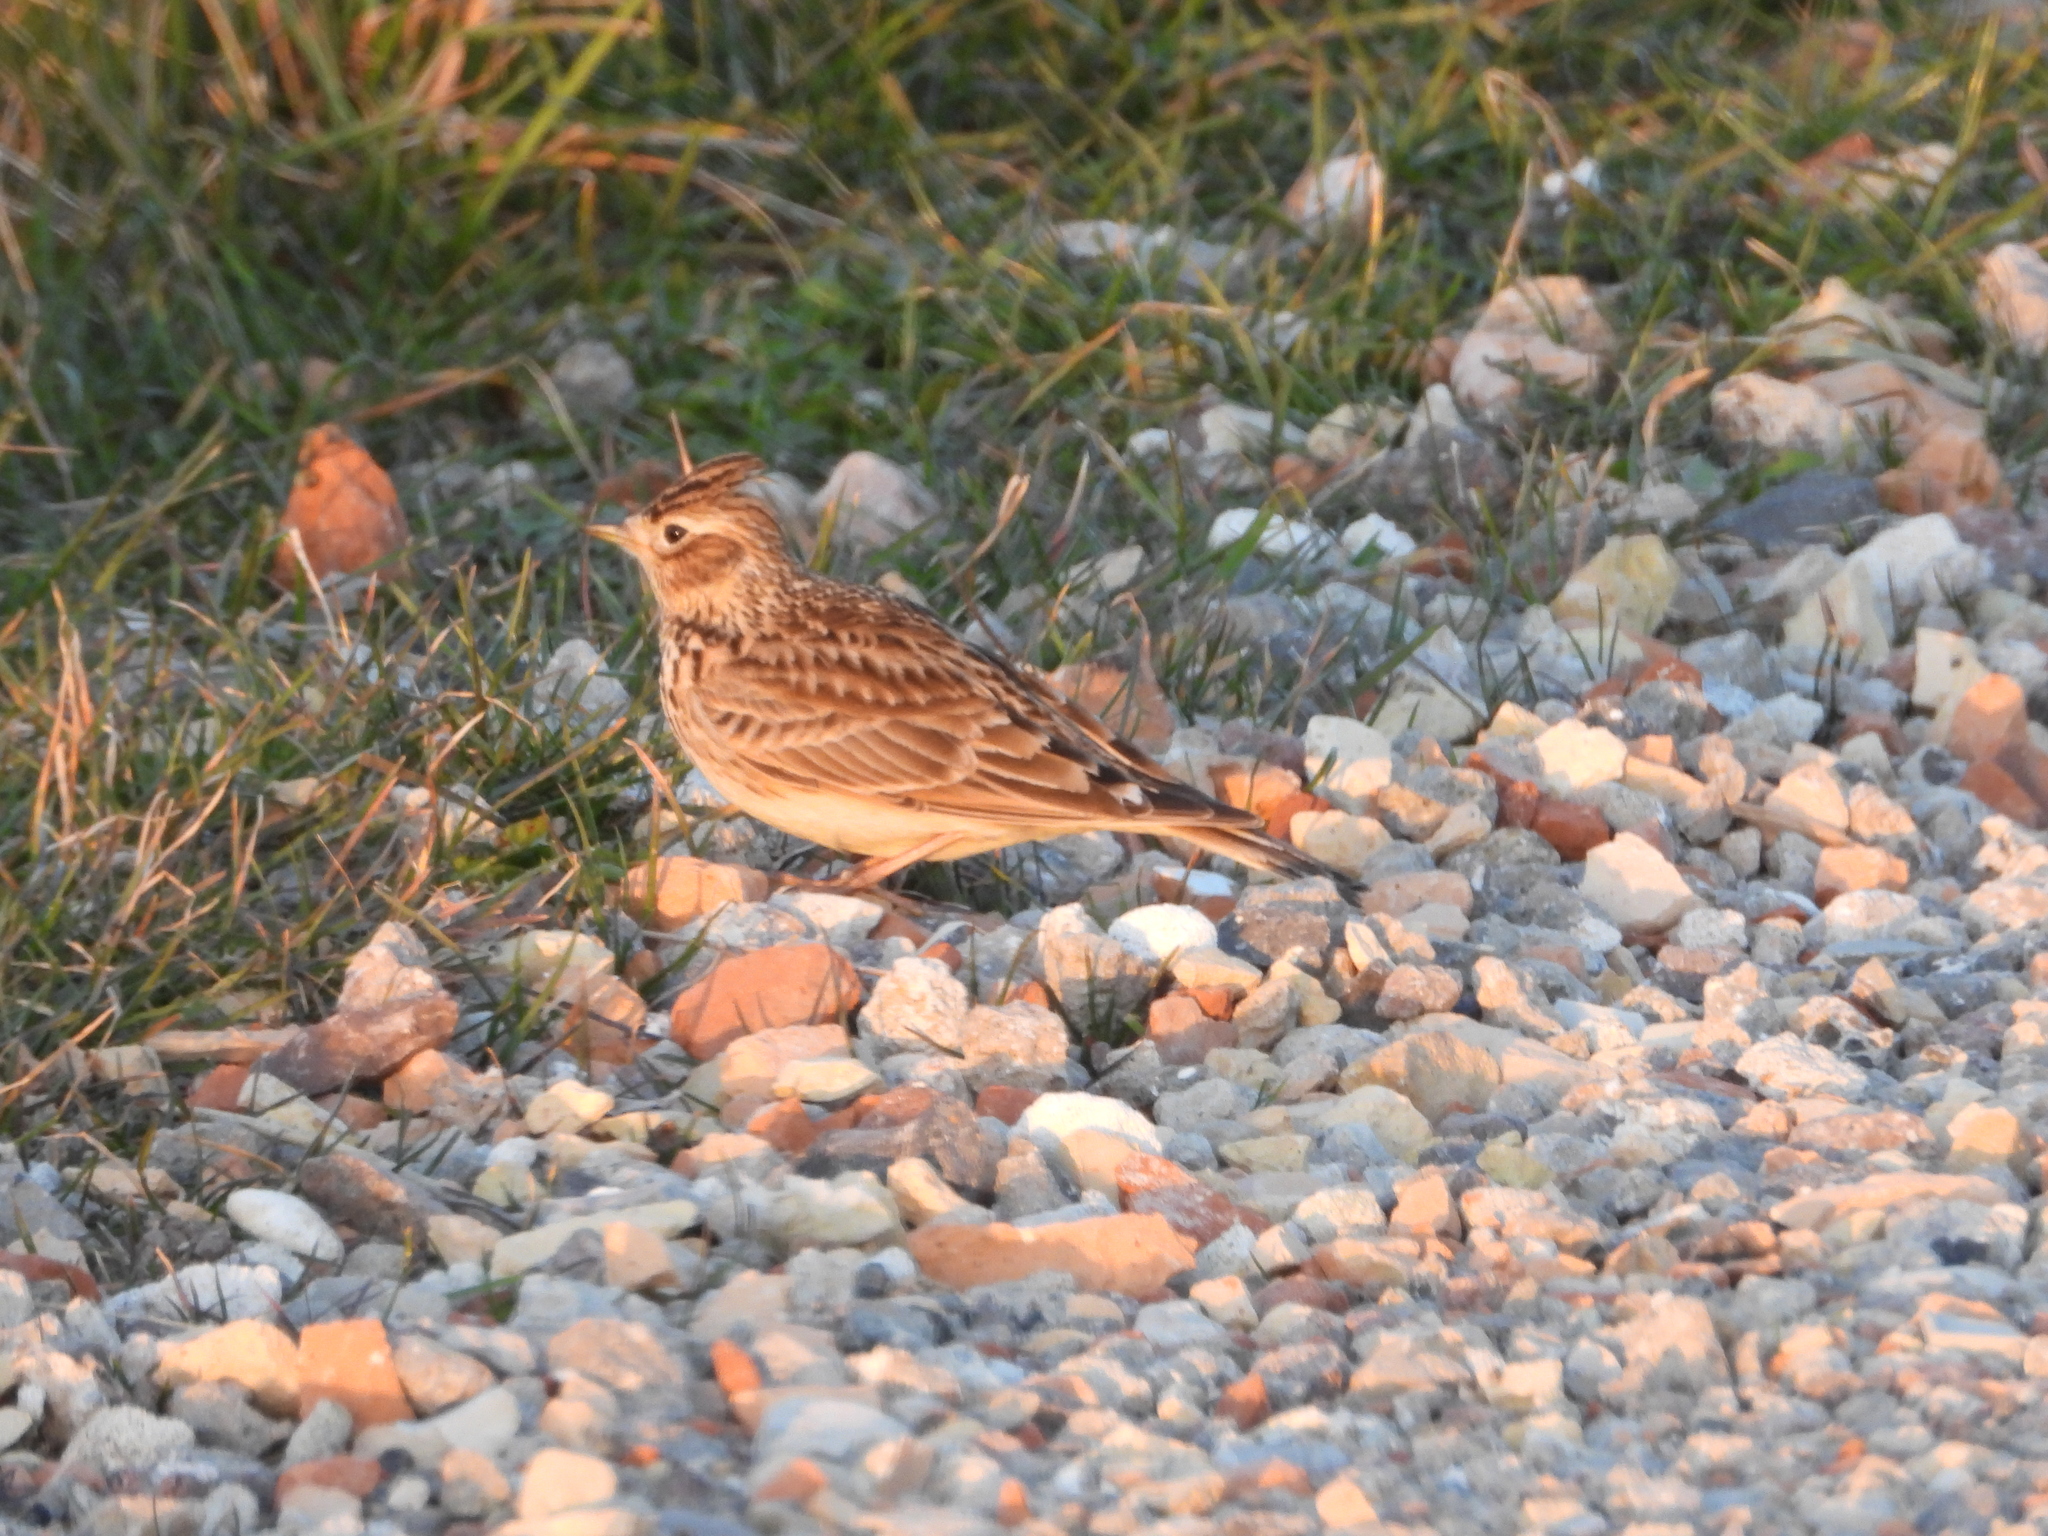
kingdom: Animalia
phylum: Chordata
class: Aves
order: Passeriformes
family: Alaudidae
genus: Alauda
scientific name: Alauda arvensis
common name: Eurasian skylark
